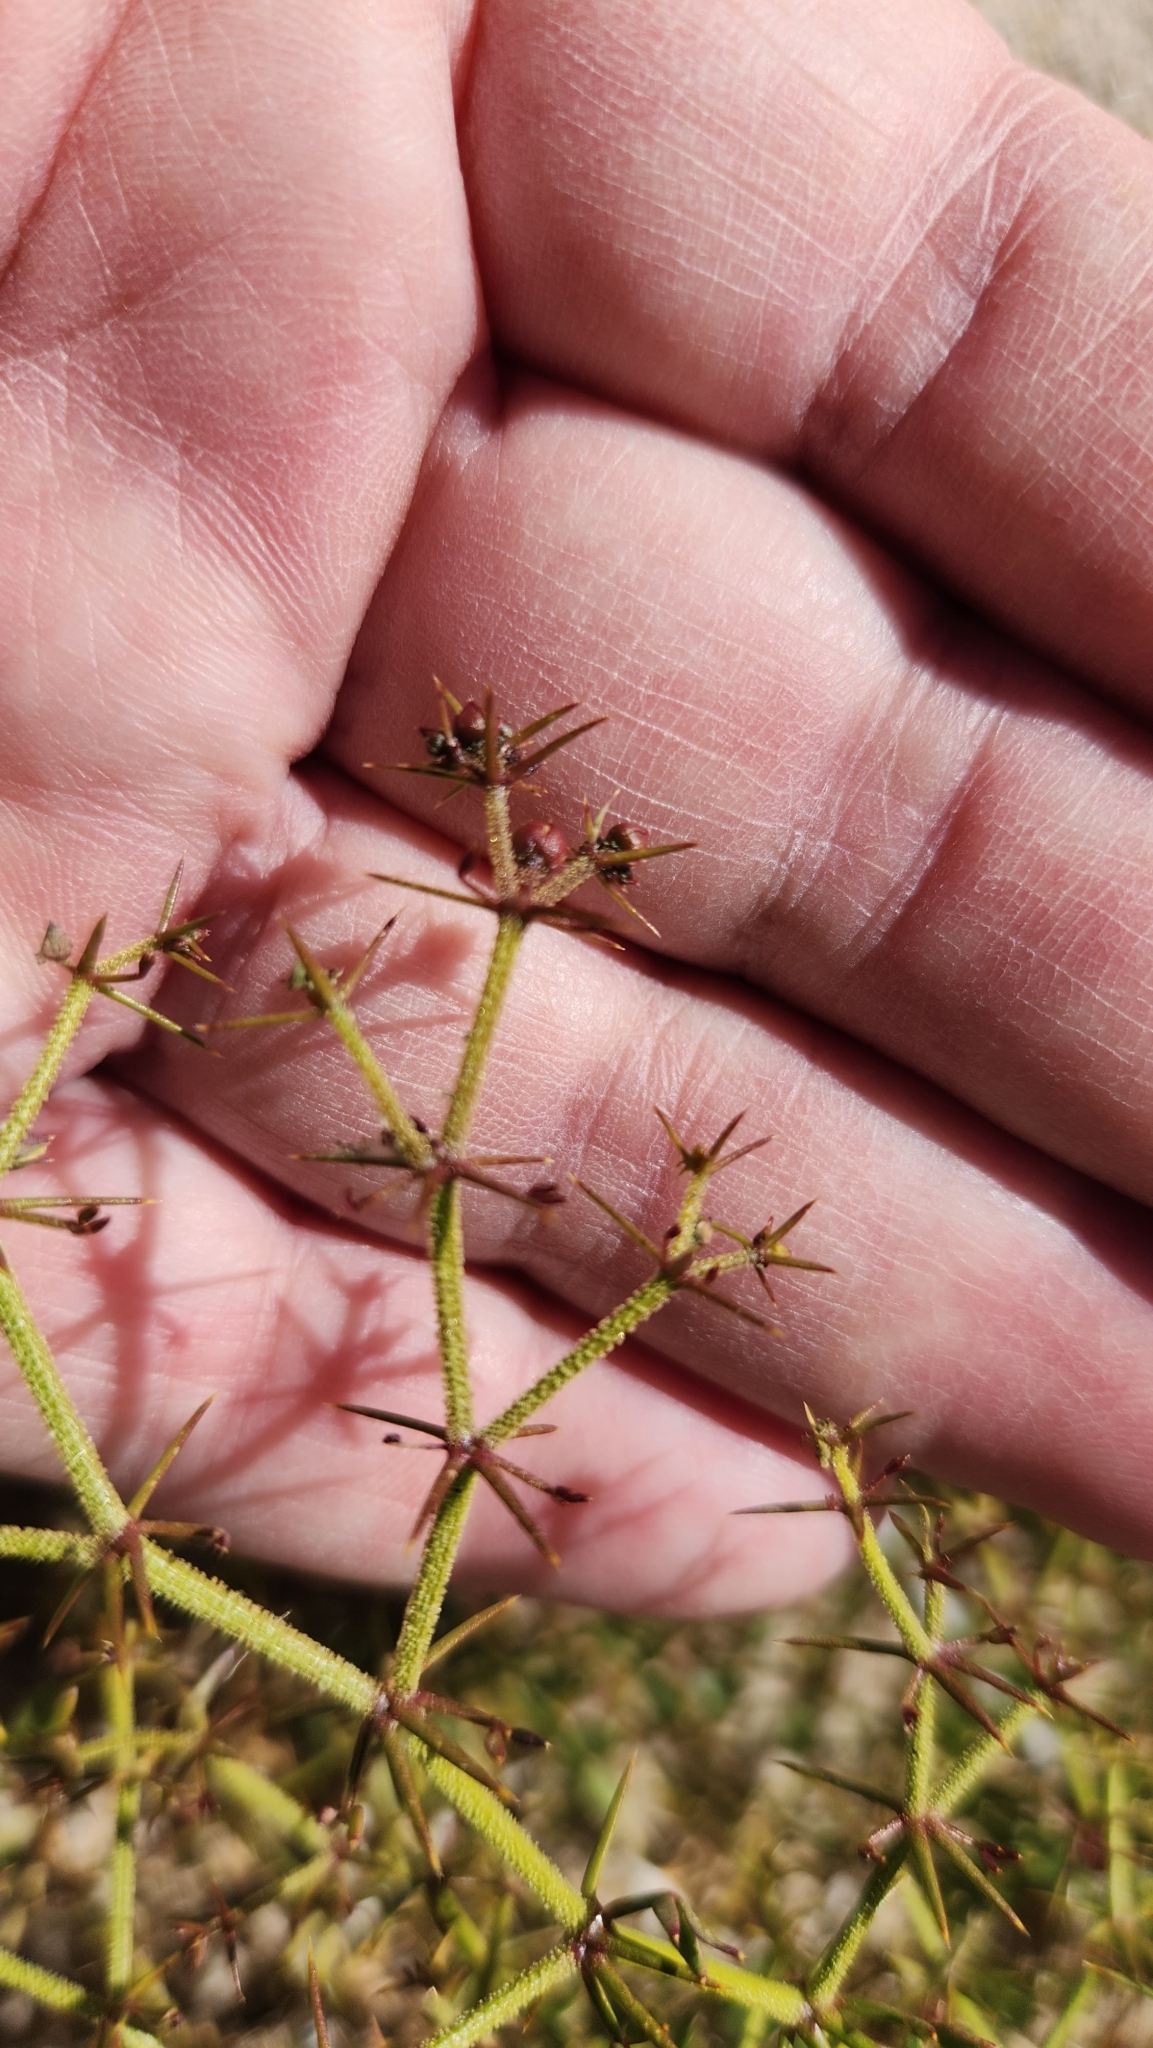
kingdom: Plantae
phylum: Tracheophyta
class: Magnoliopsida
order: Zygophyllales
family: Zygophyllaceae
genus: Fagonia
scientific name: Fagonia pachyacantha
